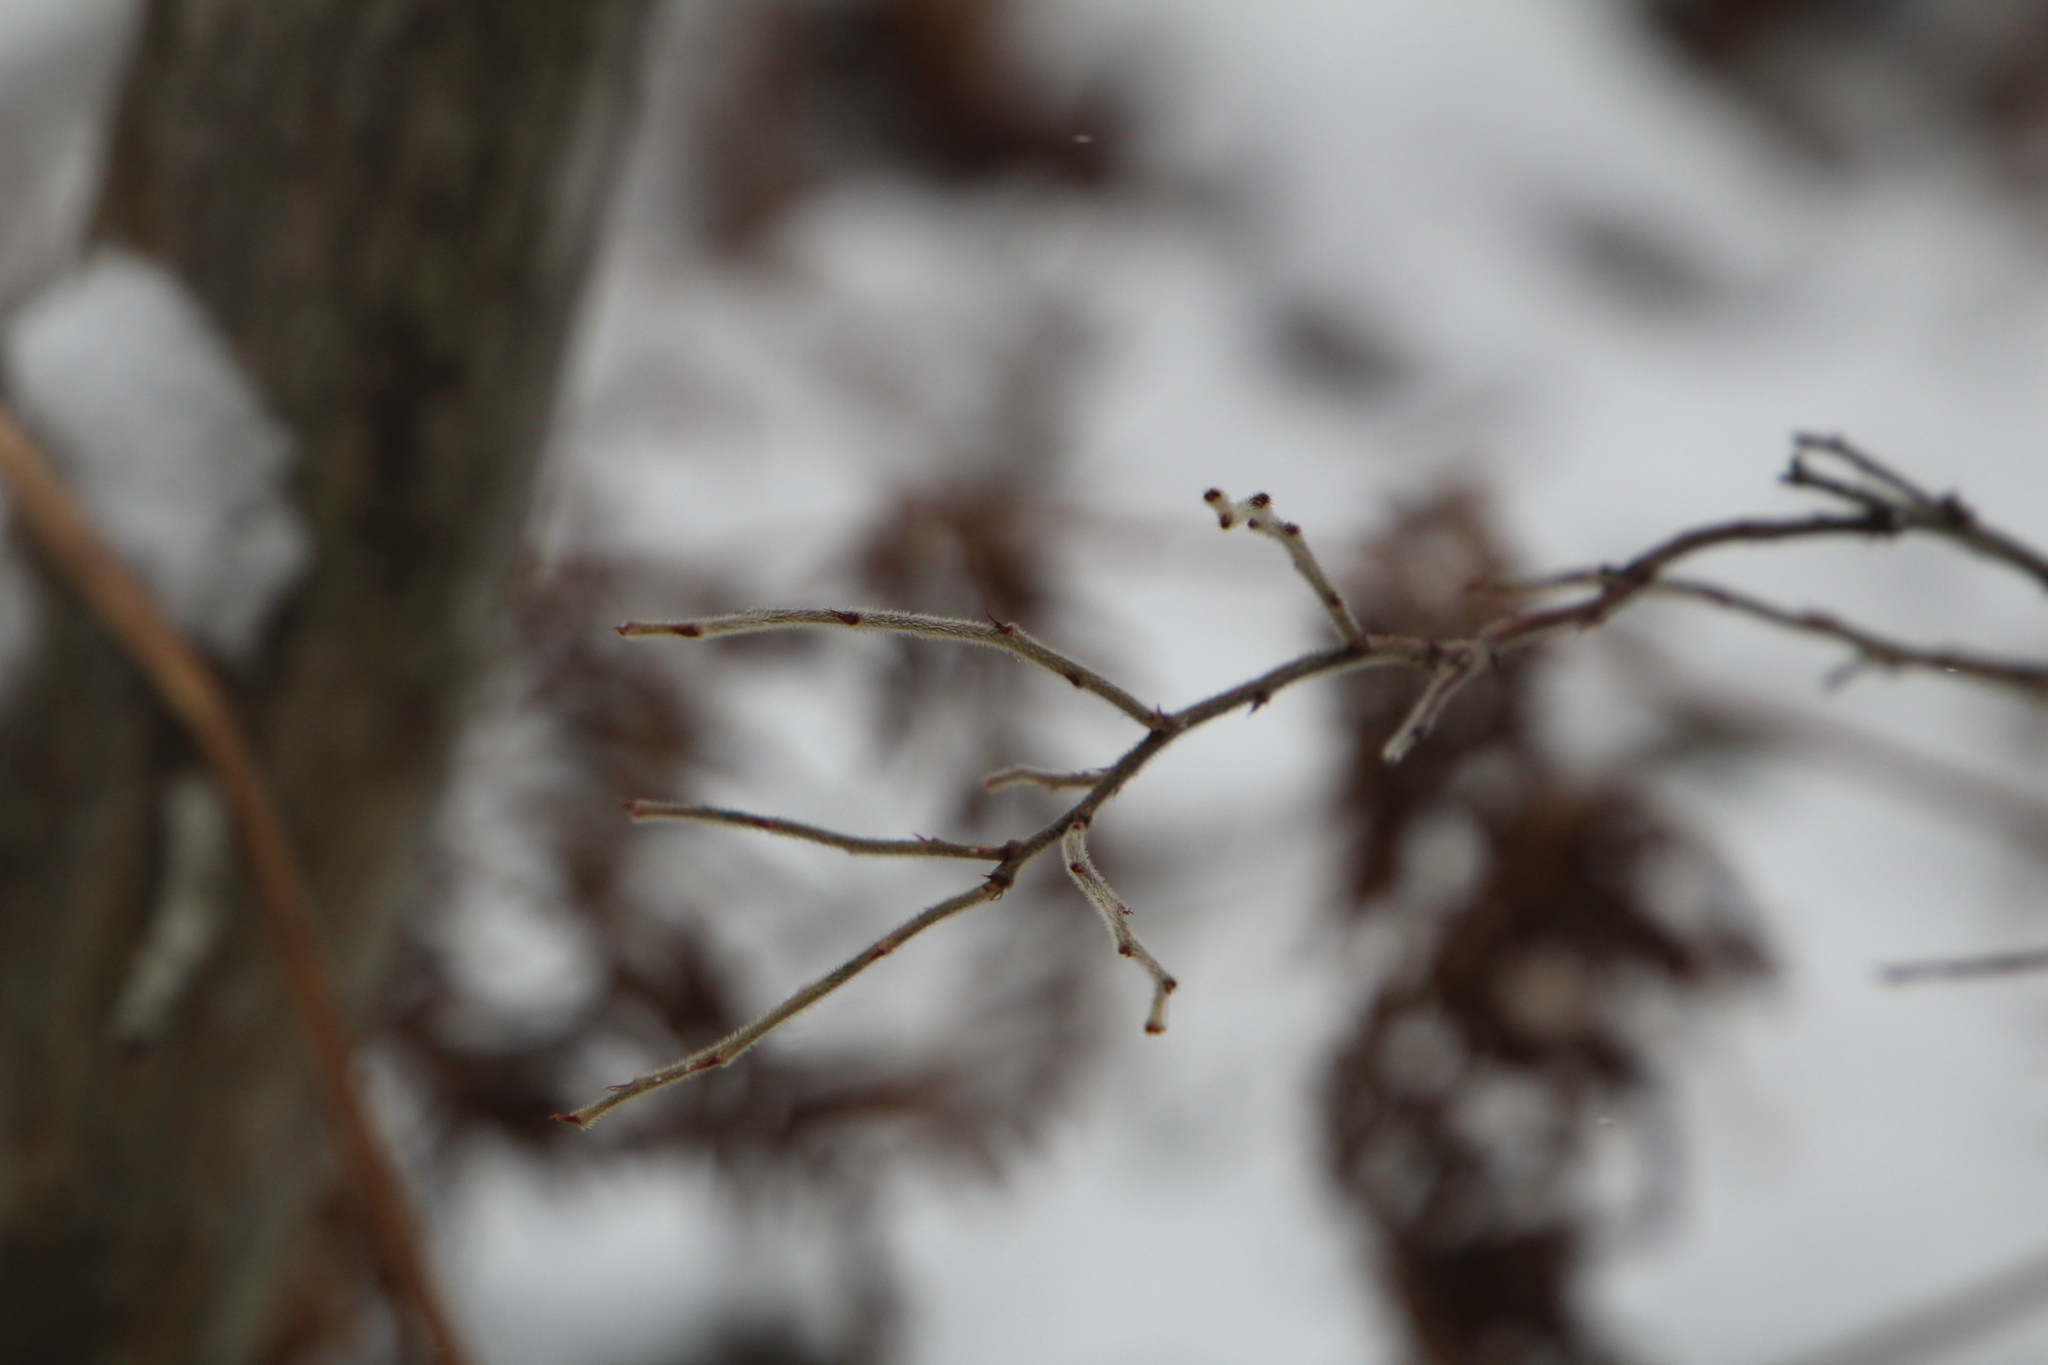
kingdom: Plantae
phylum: Tracheophyta
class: Magnoliopsida
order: Ericales
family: Ericaceae
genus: Vaccinium
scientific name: Vaccinium myrtilloides
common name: Canada blueberry
